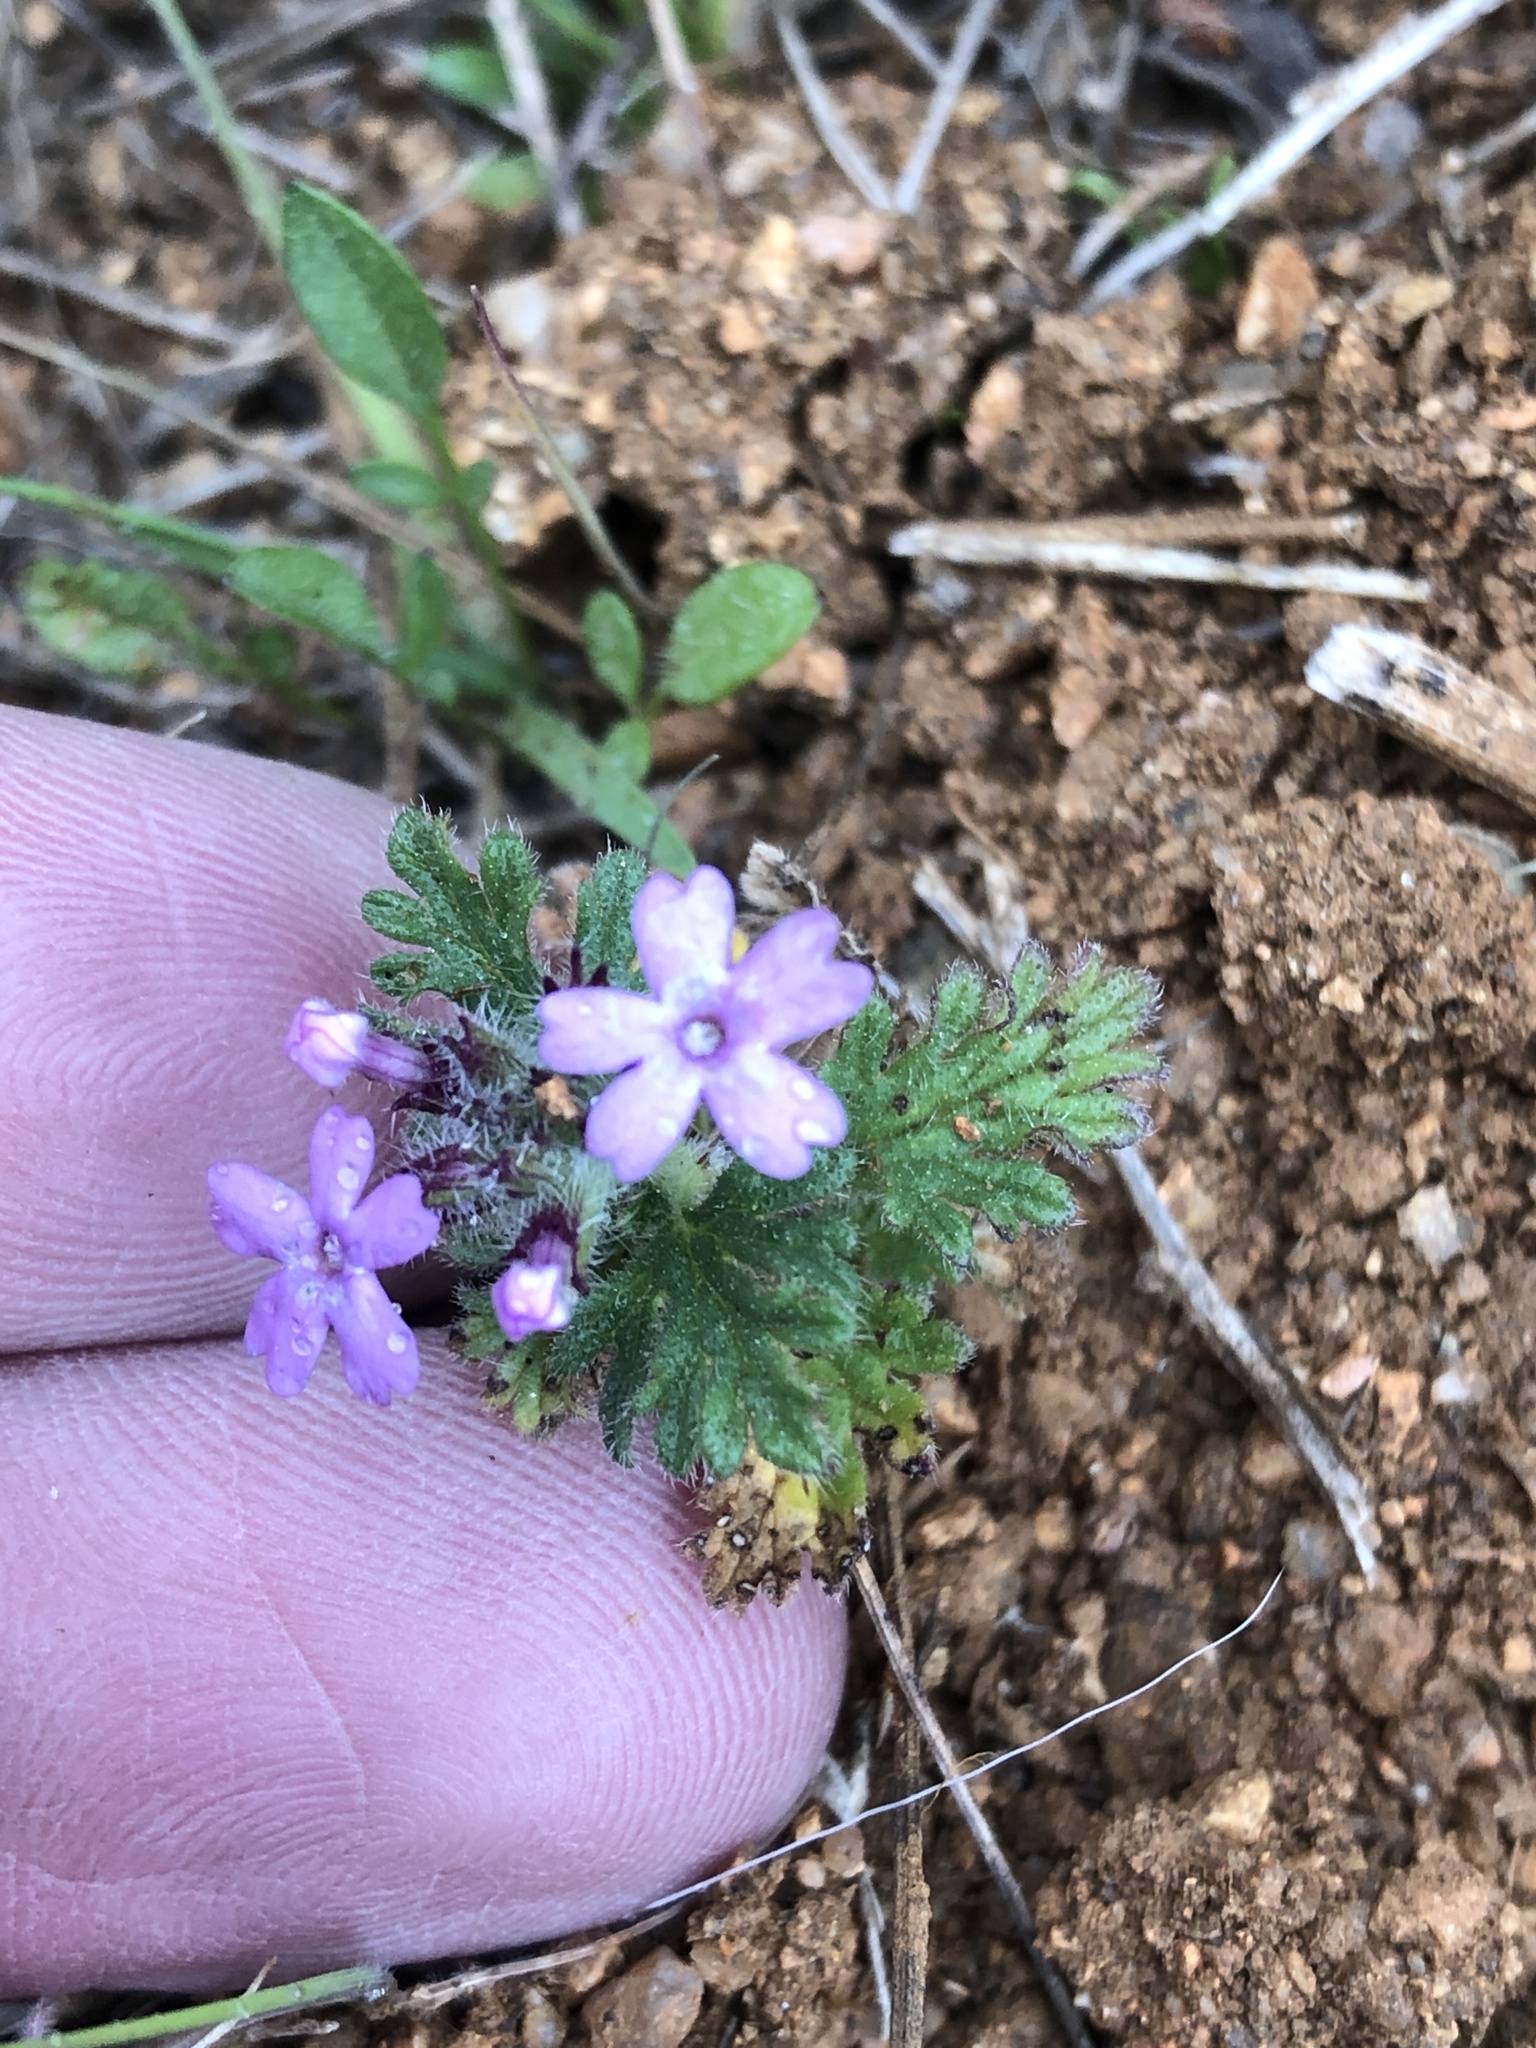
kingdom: Plantae
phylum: Tracheophyta
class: Magnoliopsida
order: Lamiales
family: Verbenaceae
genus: Verbena
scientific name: Verbena pumila
